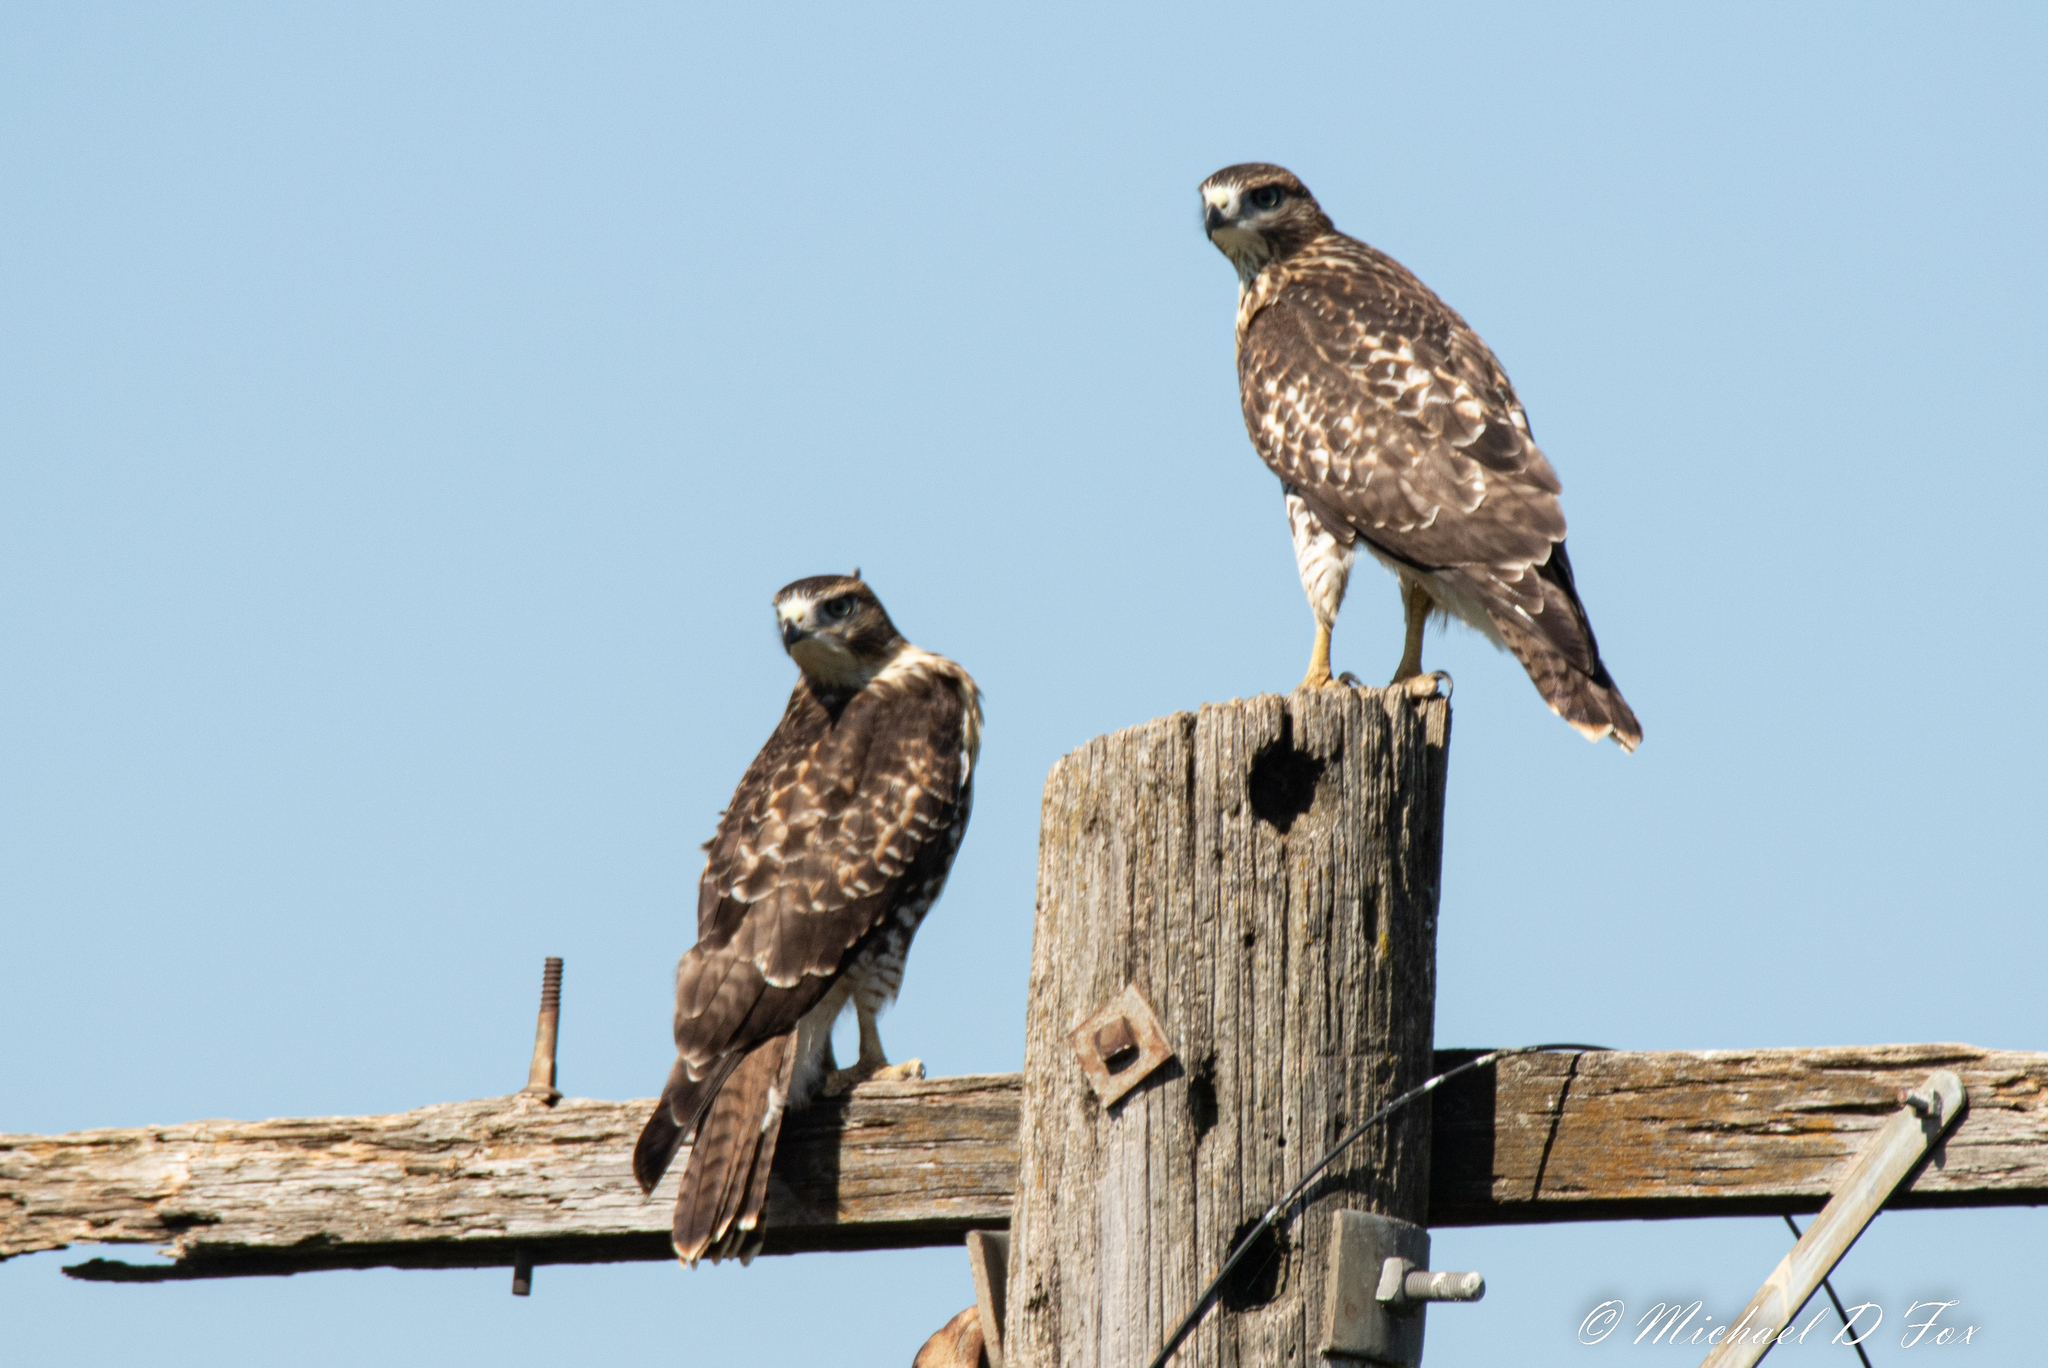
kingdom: Animalia
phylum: Chordata
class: Aves
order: Accipitriformes
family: Accipitridae
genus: Buteo
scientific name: Buteo jamaicensis
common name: Red-tailed hawk
